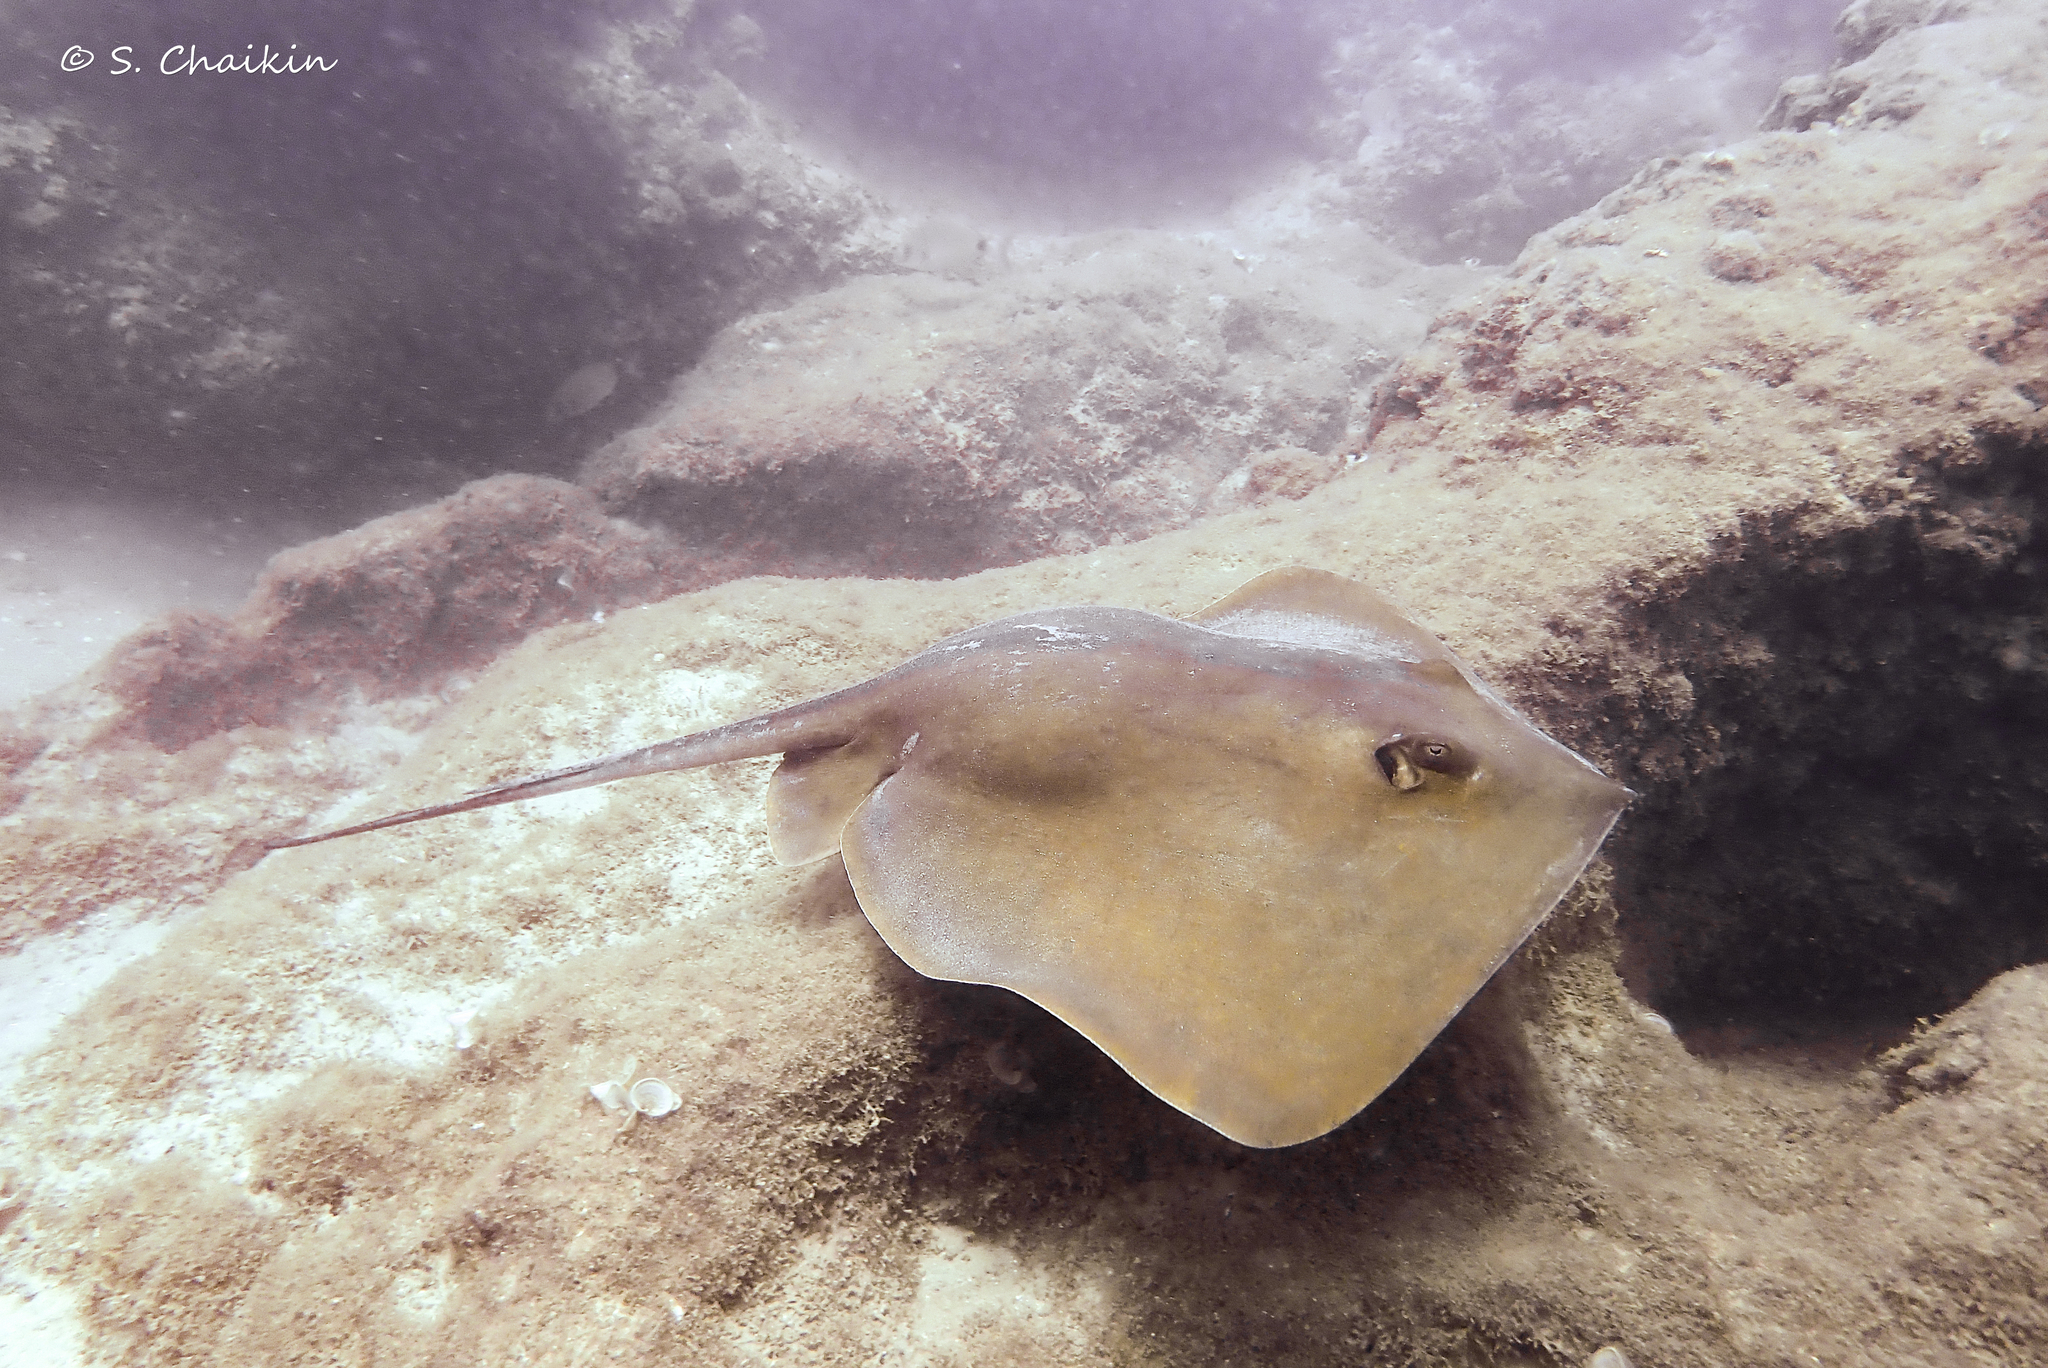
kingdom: Animalia
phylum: Chordata
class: Elasmobranchii
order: Myliobatiformes
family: Dasyatidae
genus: Dasyatis
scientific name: Dasyatis pastinaca
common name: Common stingray
